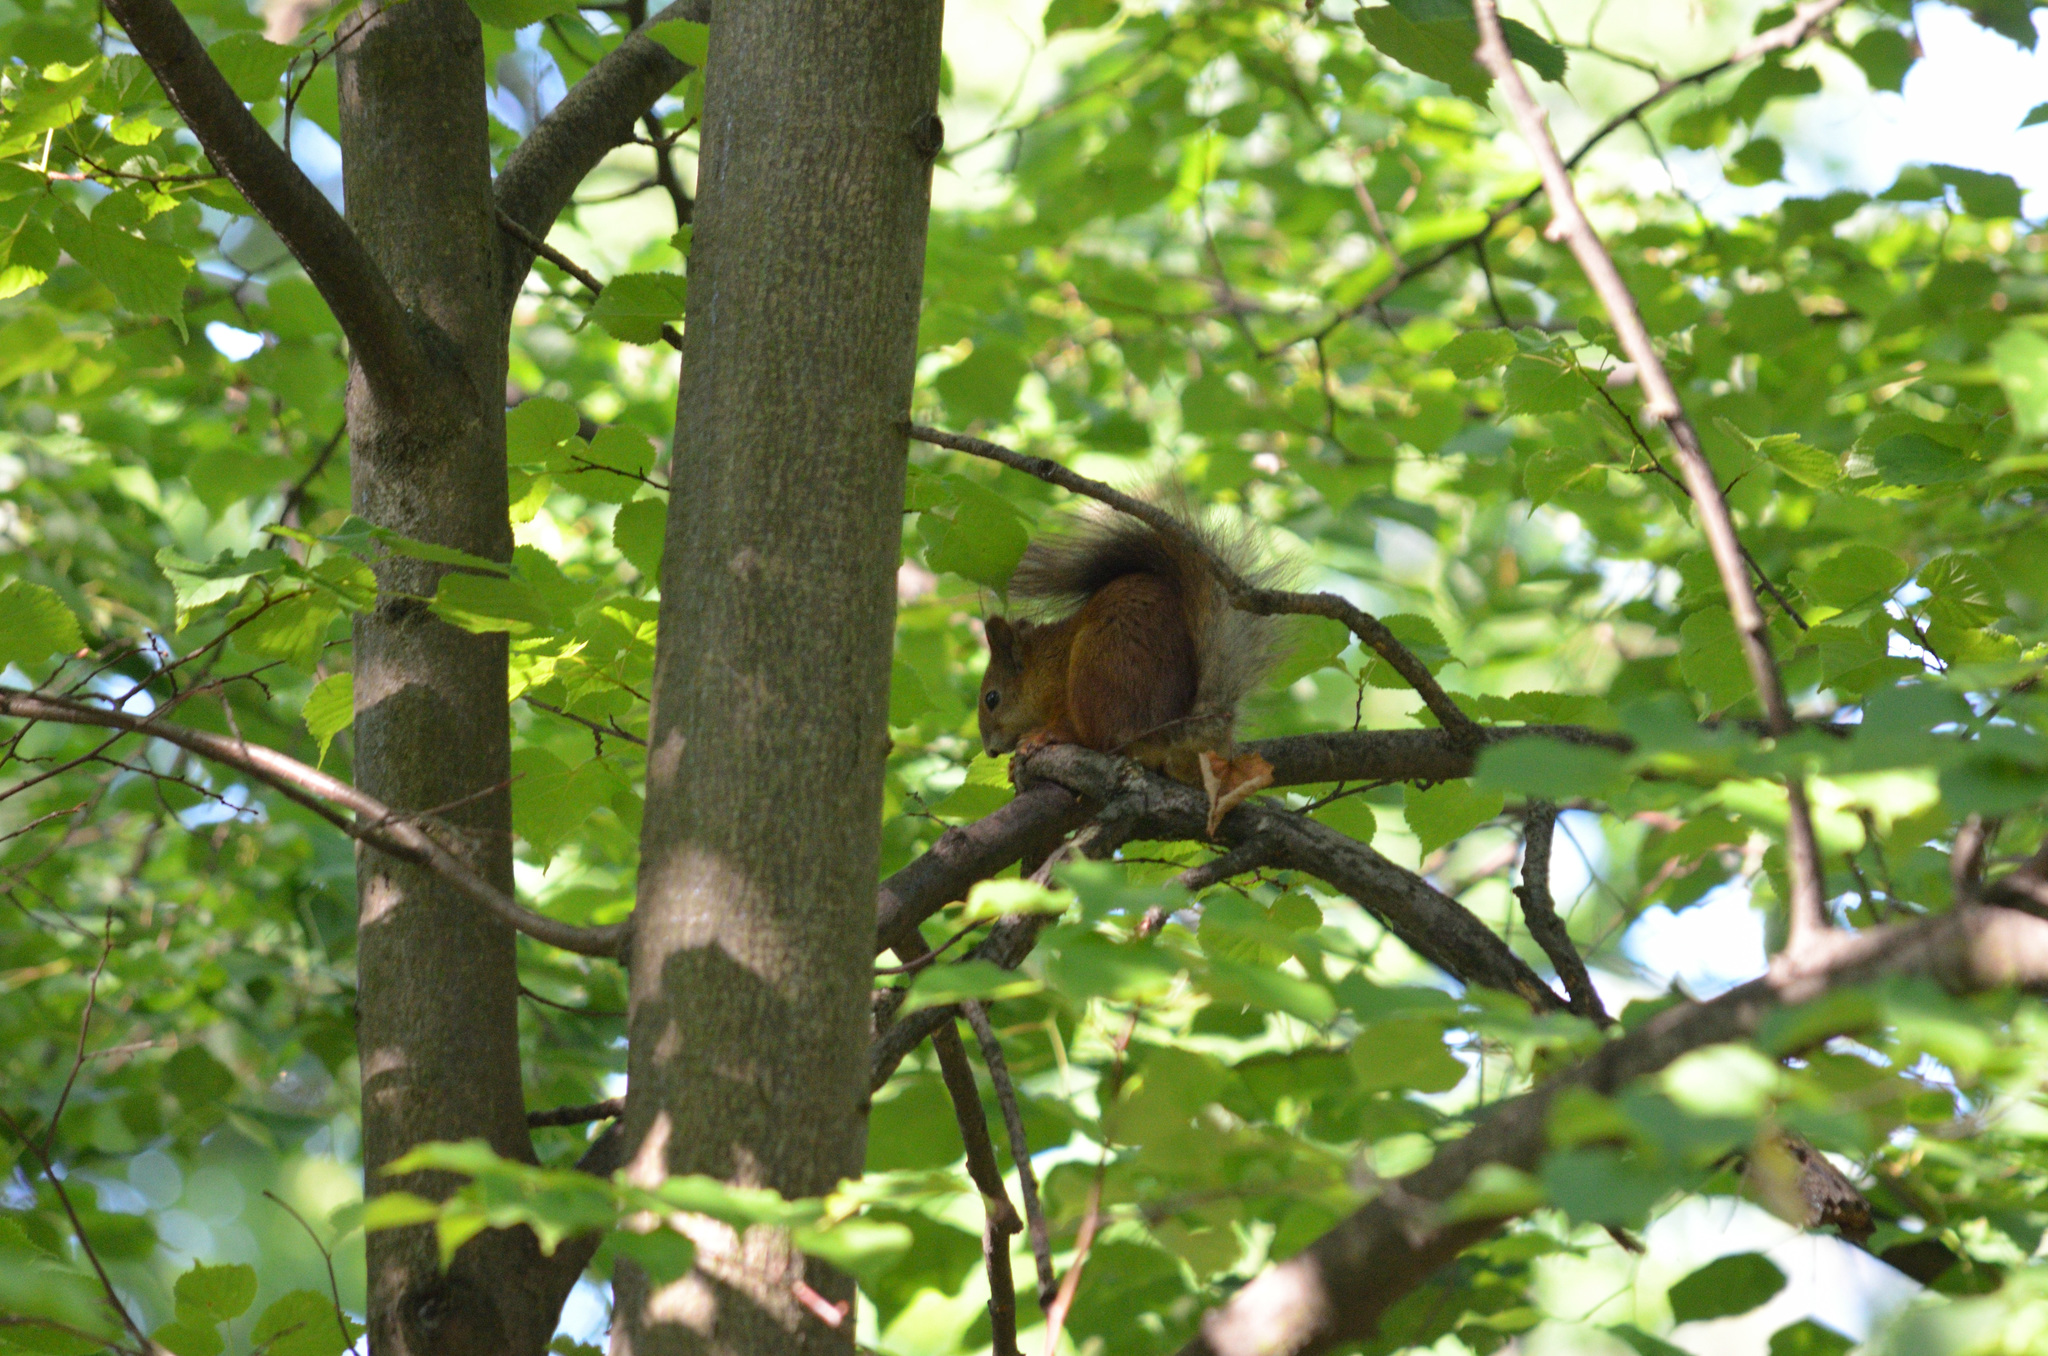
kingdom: Animalia
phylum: Chordata
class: Mammalia
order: Rodentia
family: Sciuridae
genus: Sciurus
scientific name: Sciurus vulgaris
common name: Eurasian red squirrel
